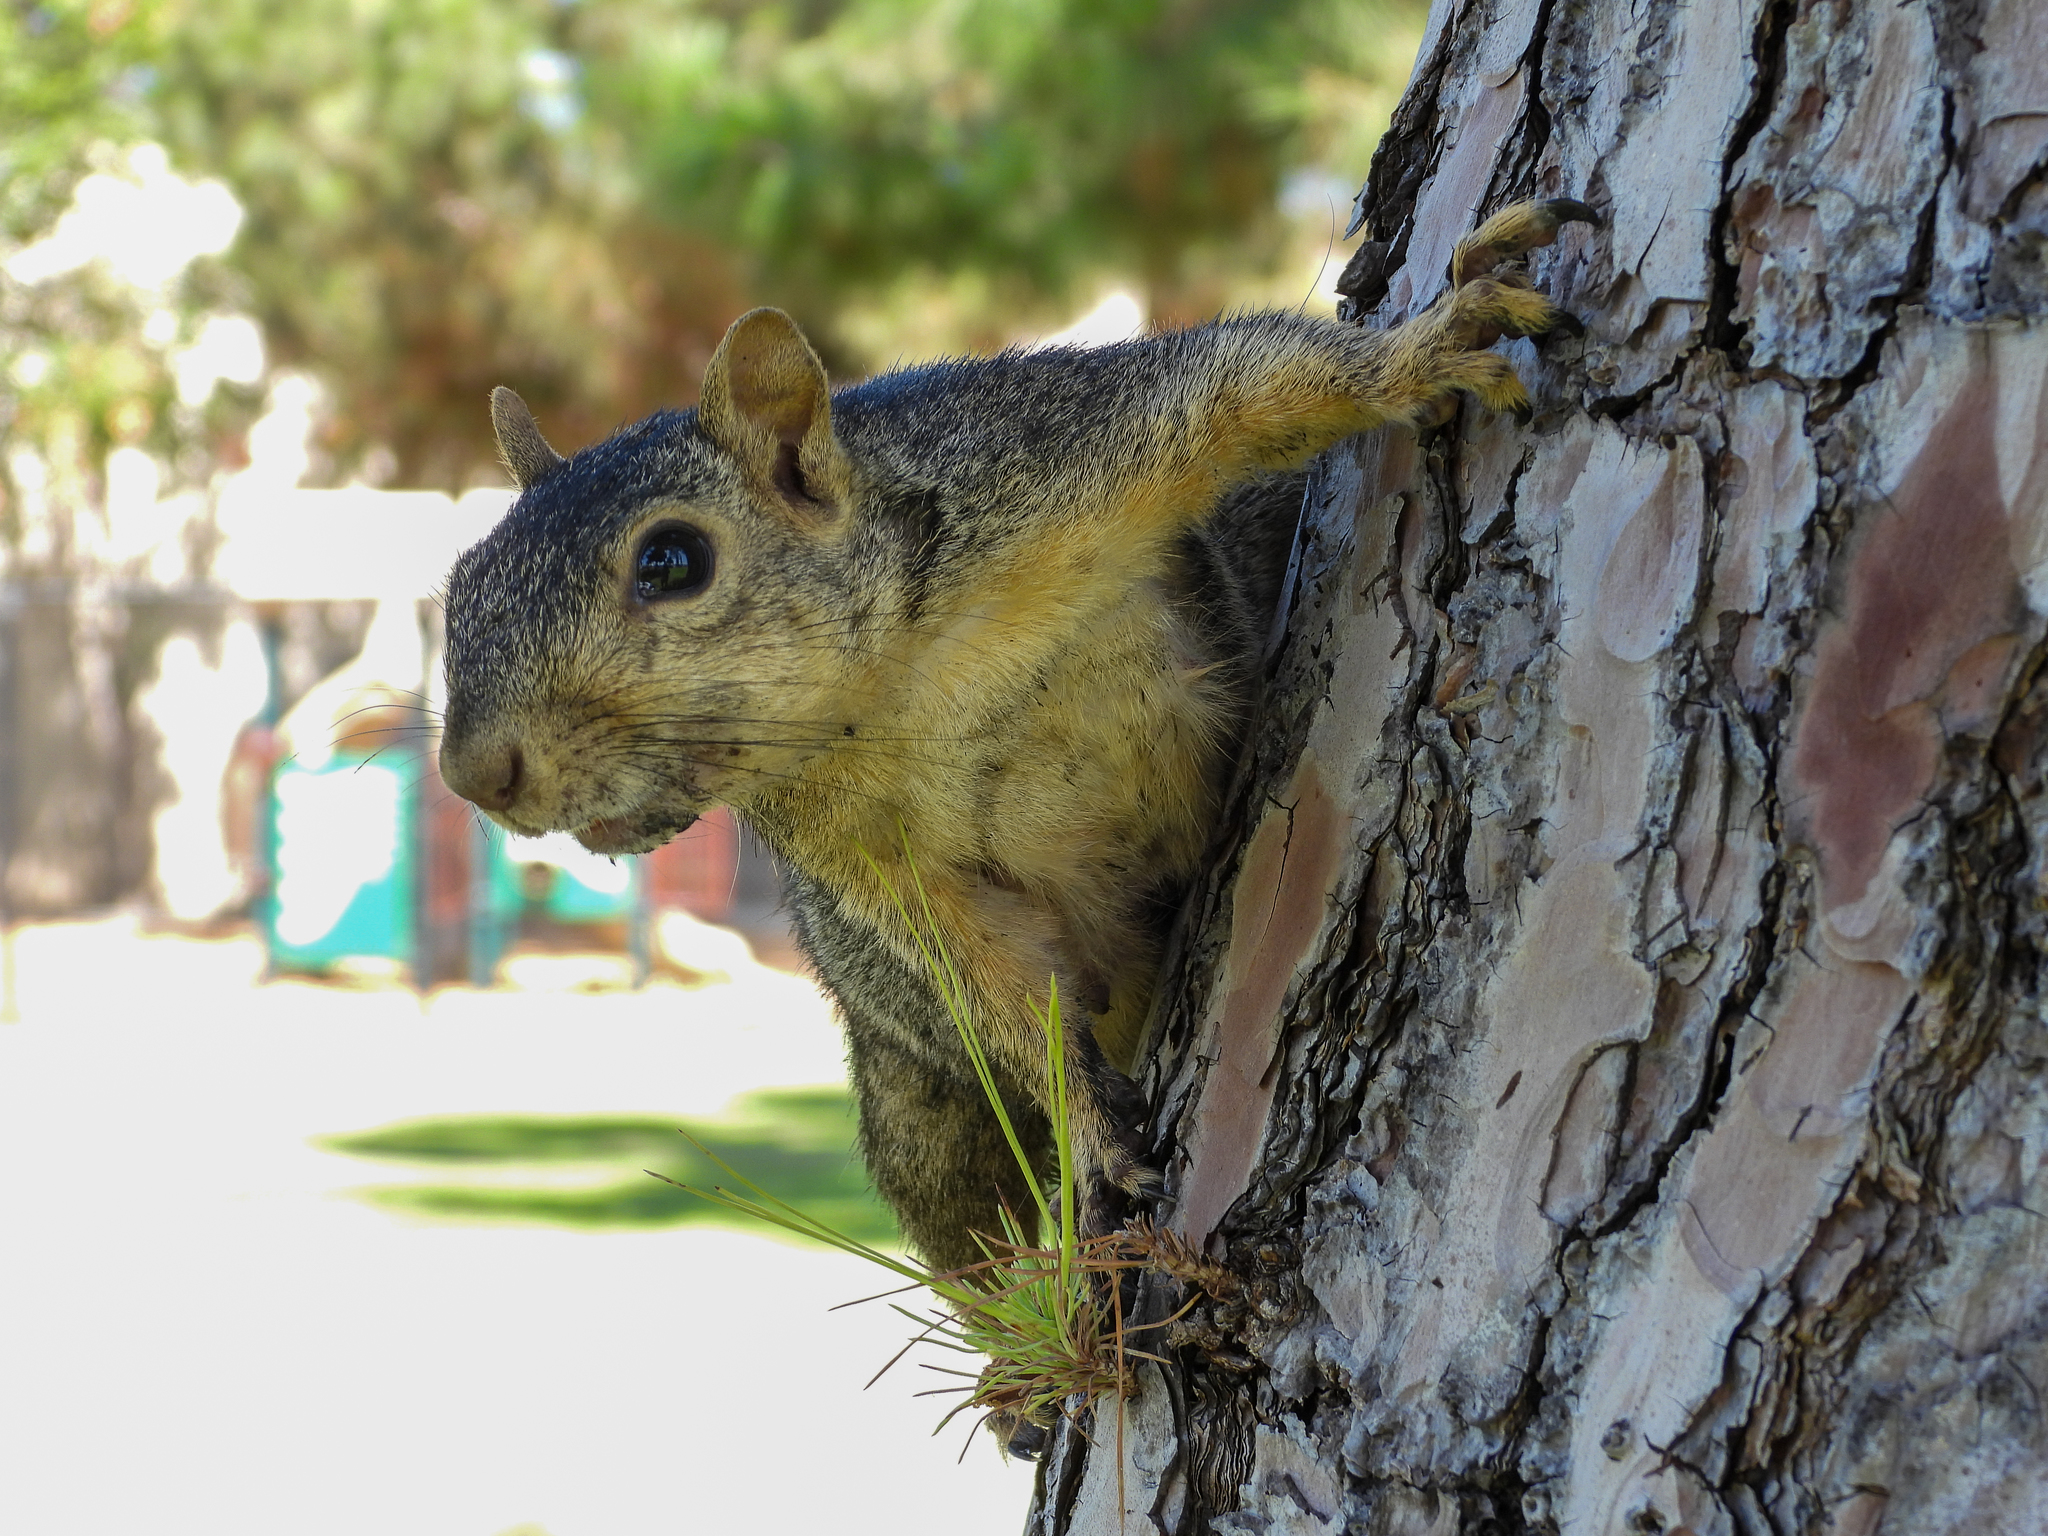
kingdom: Animalia
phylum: Chordata
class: Mammalia
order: Rodentia
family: Sciuridae
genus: Sciurus
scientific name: Sciurus niger
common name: Fox squirrel
